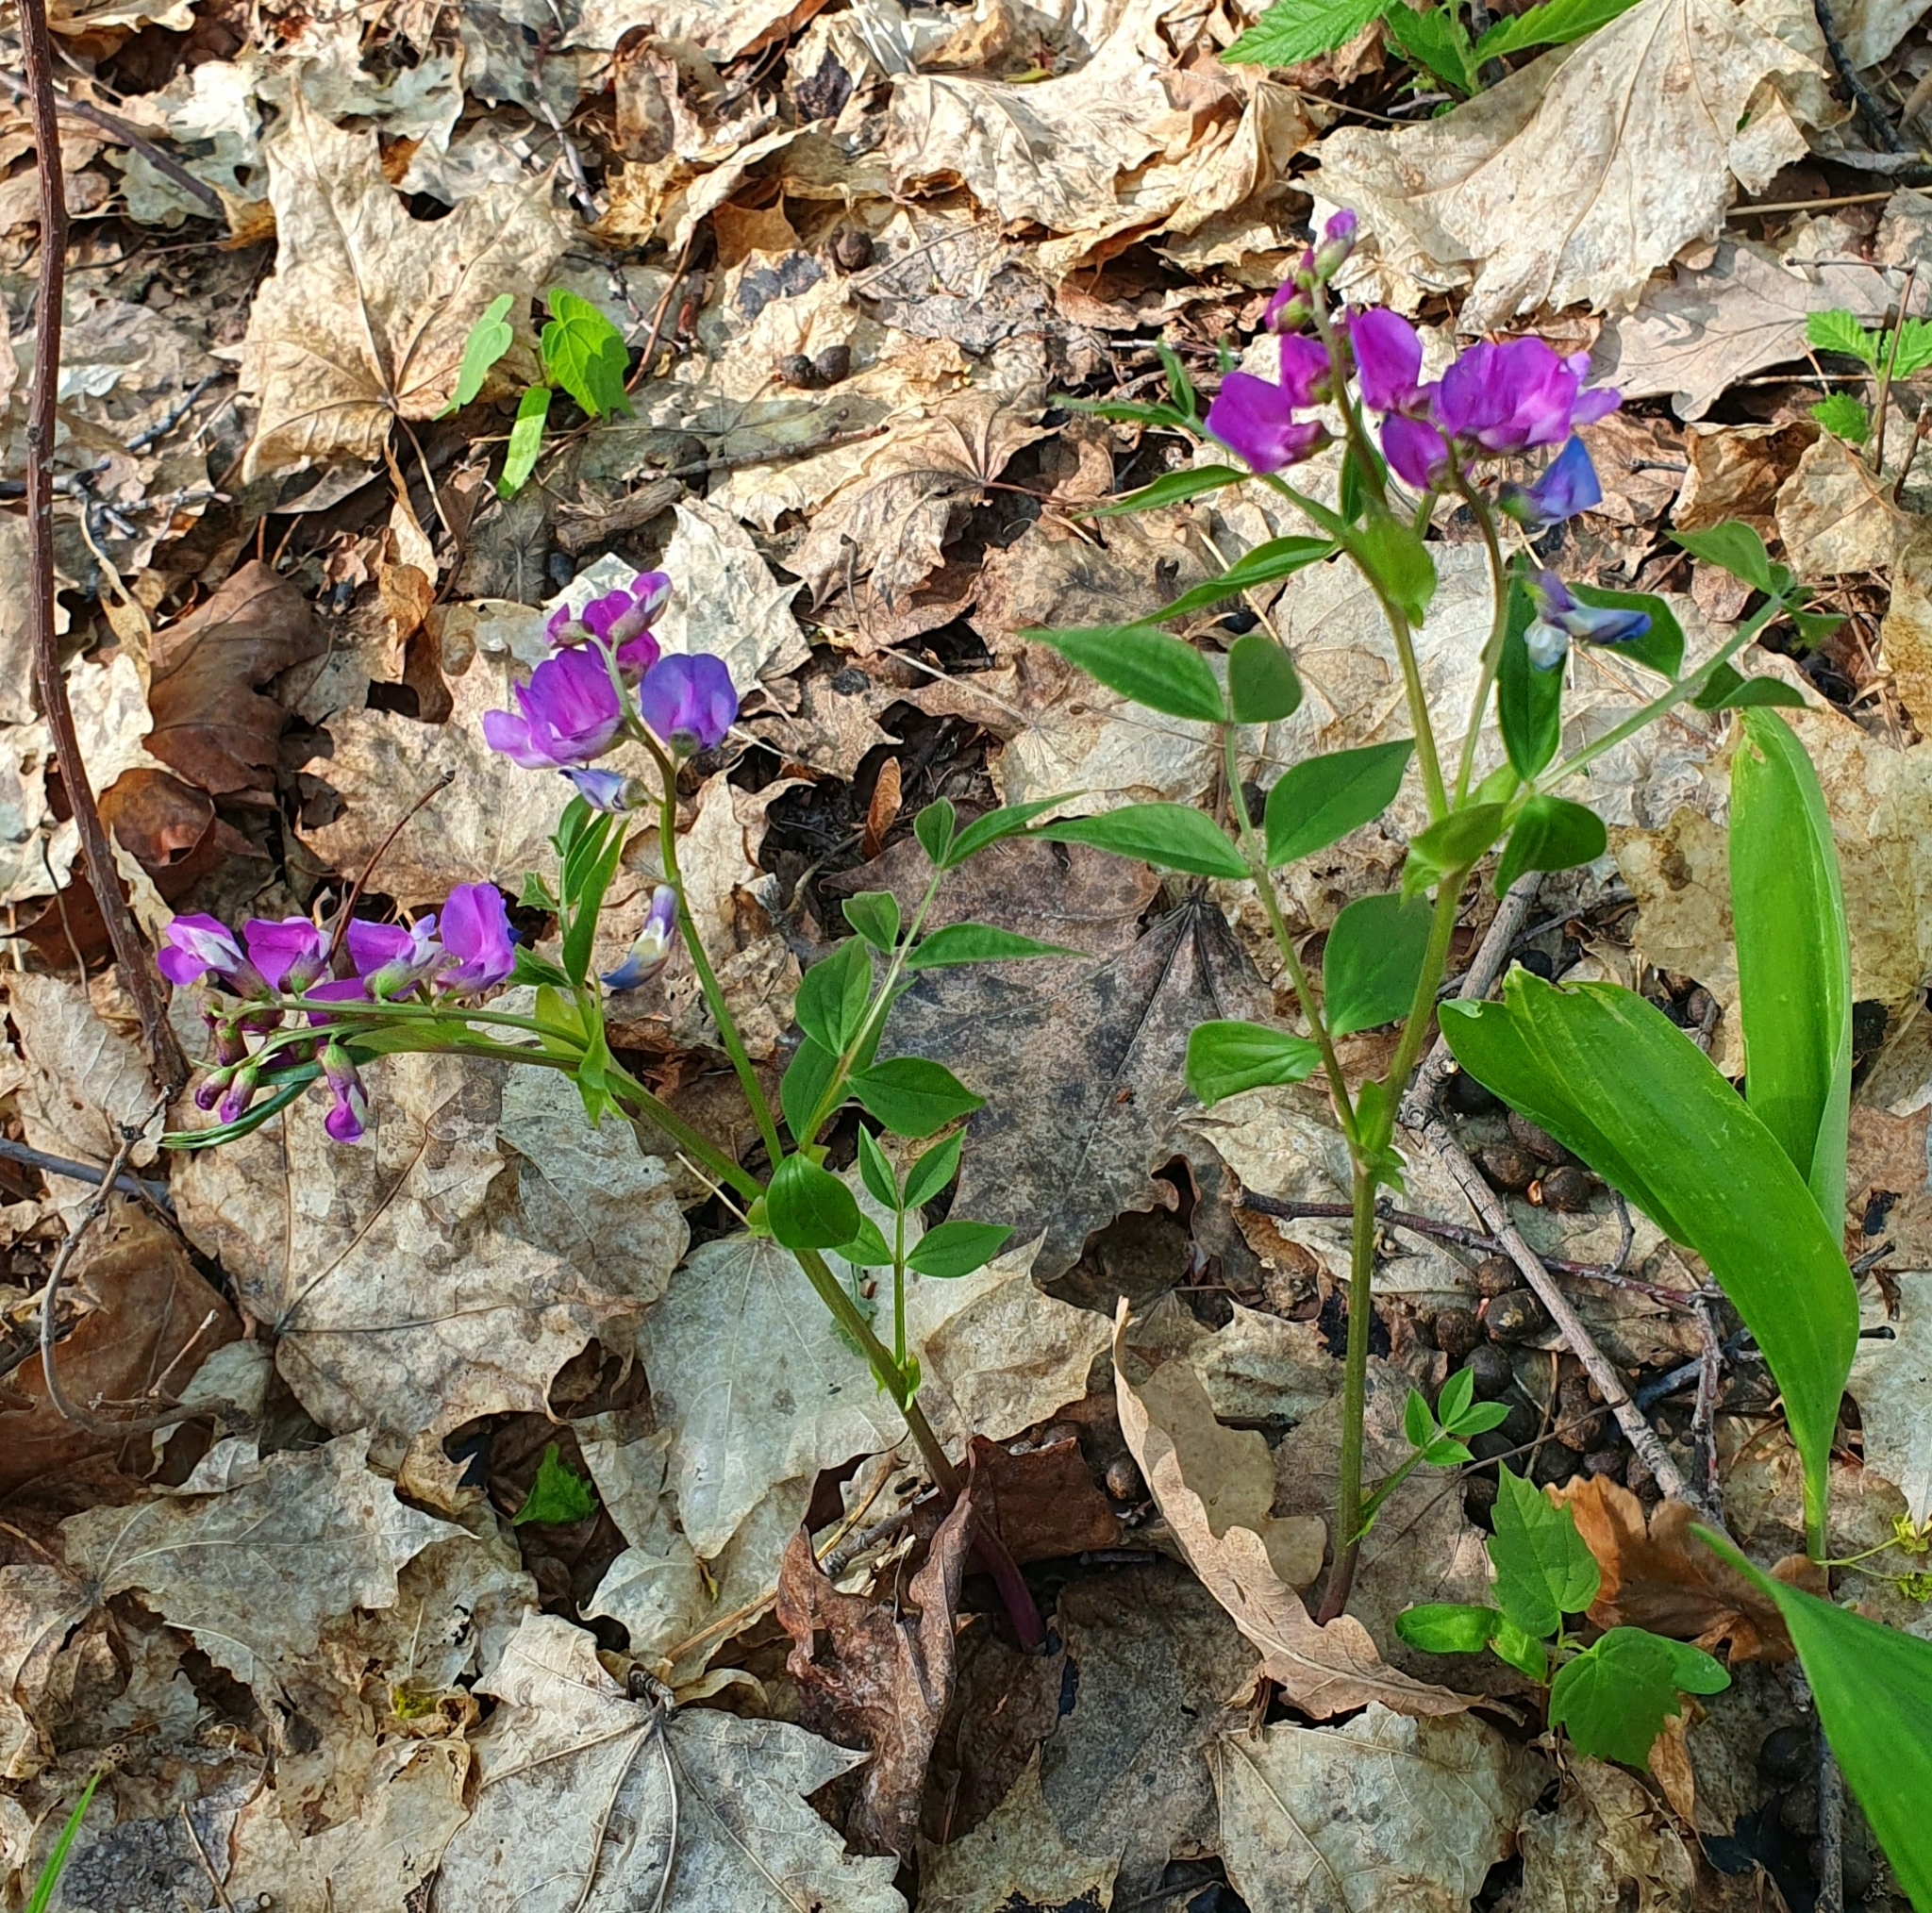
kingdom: Plantae
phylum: Tracheophyta
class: Magnoliopsida
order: Fabales
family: Fabaceae
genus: Lathyrus
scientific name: Lathyrus vernus
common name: Spring pea
